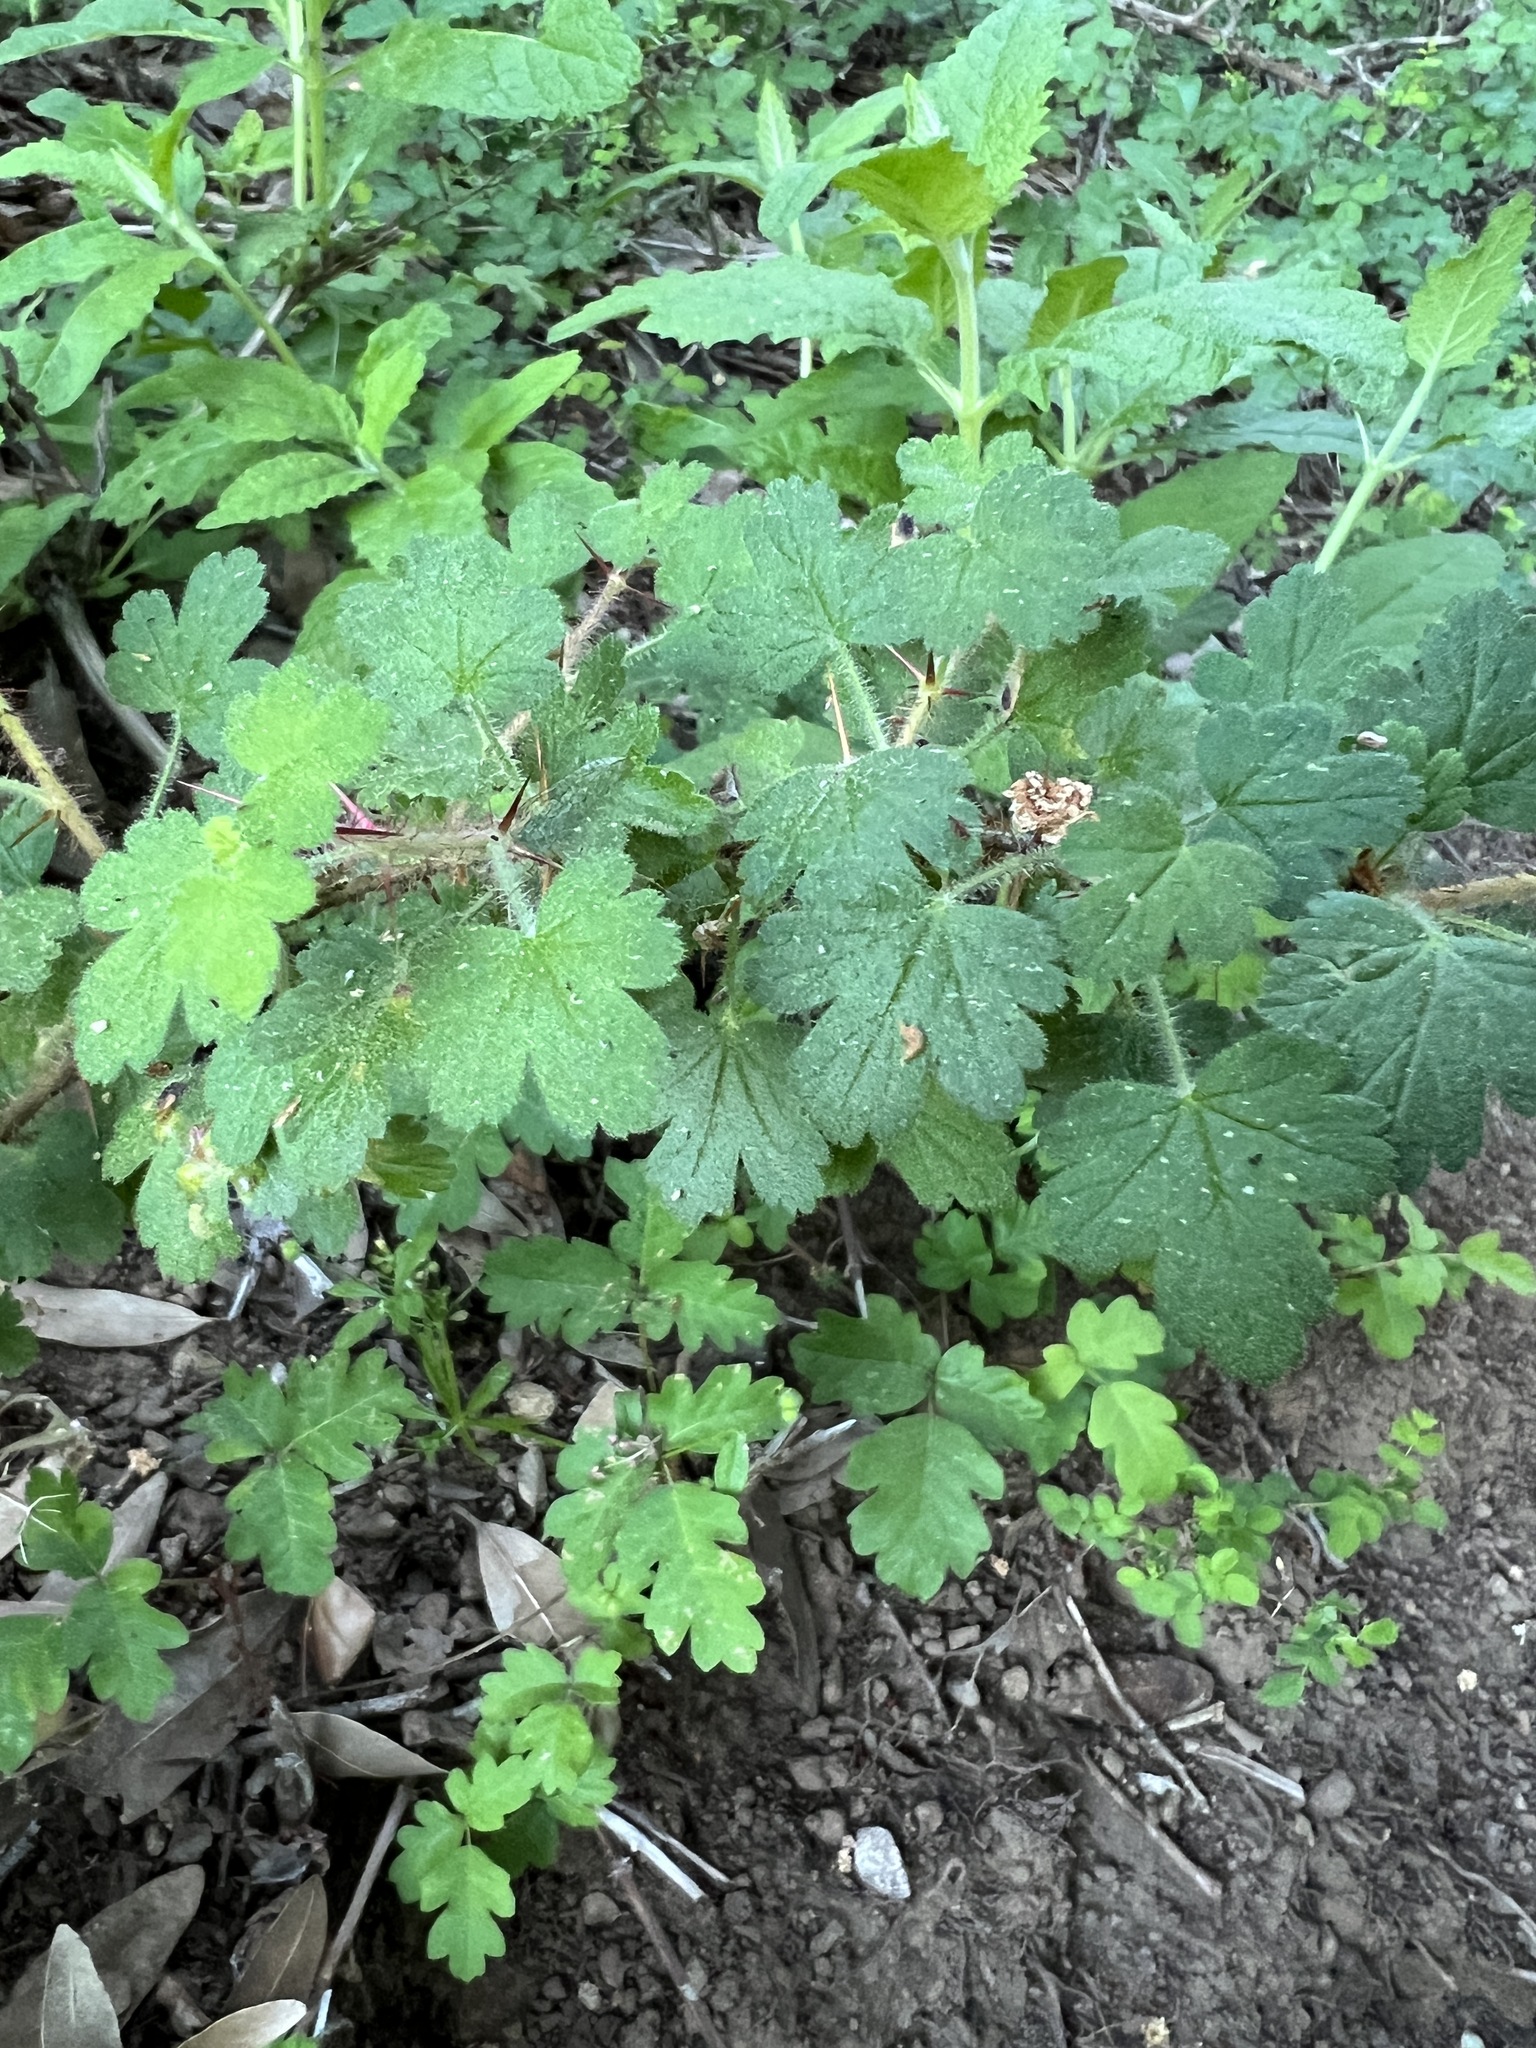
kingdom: Plantae
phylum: Tracheophyta
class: Magnoliopsida
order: Saxifragales
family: Grossulariaceae
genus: Ribes
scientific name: Ribes menziesii
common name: Canyon gooseberry
